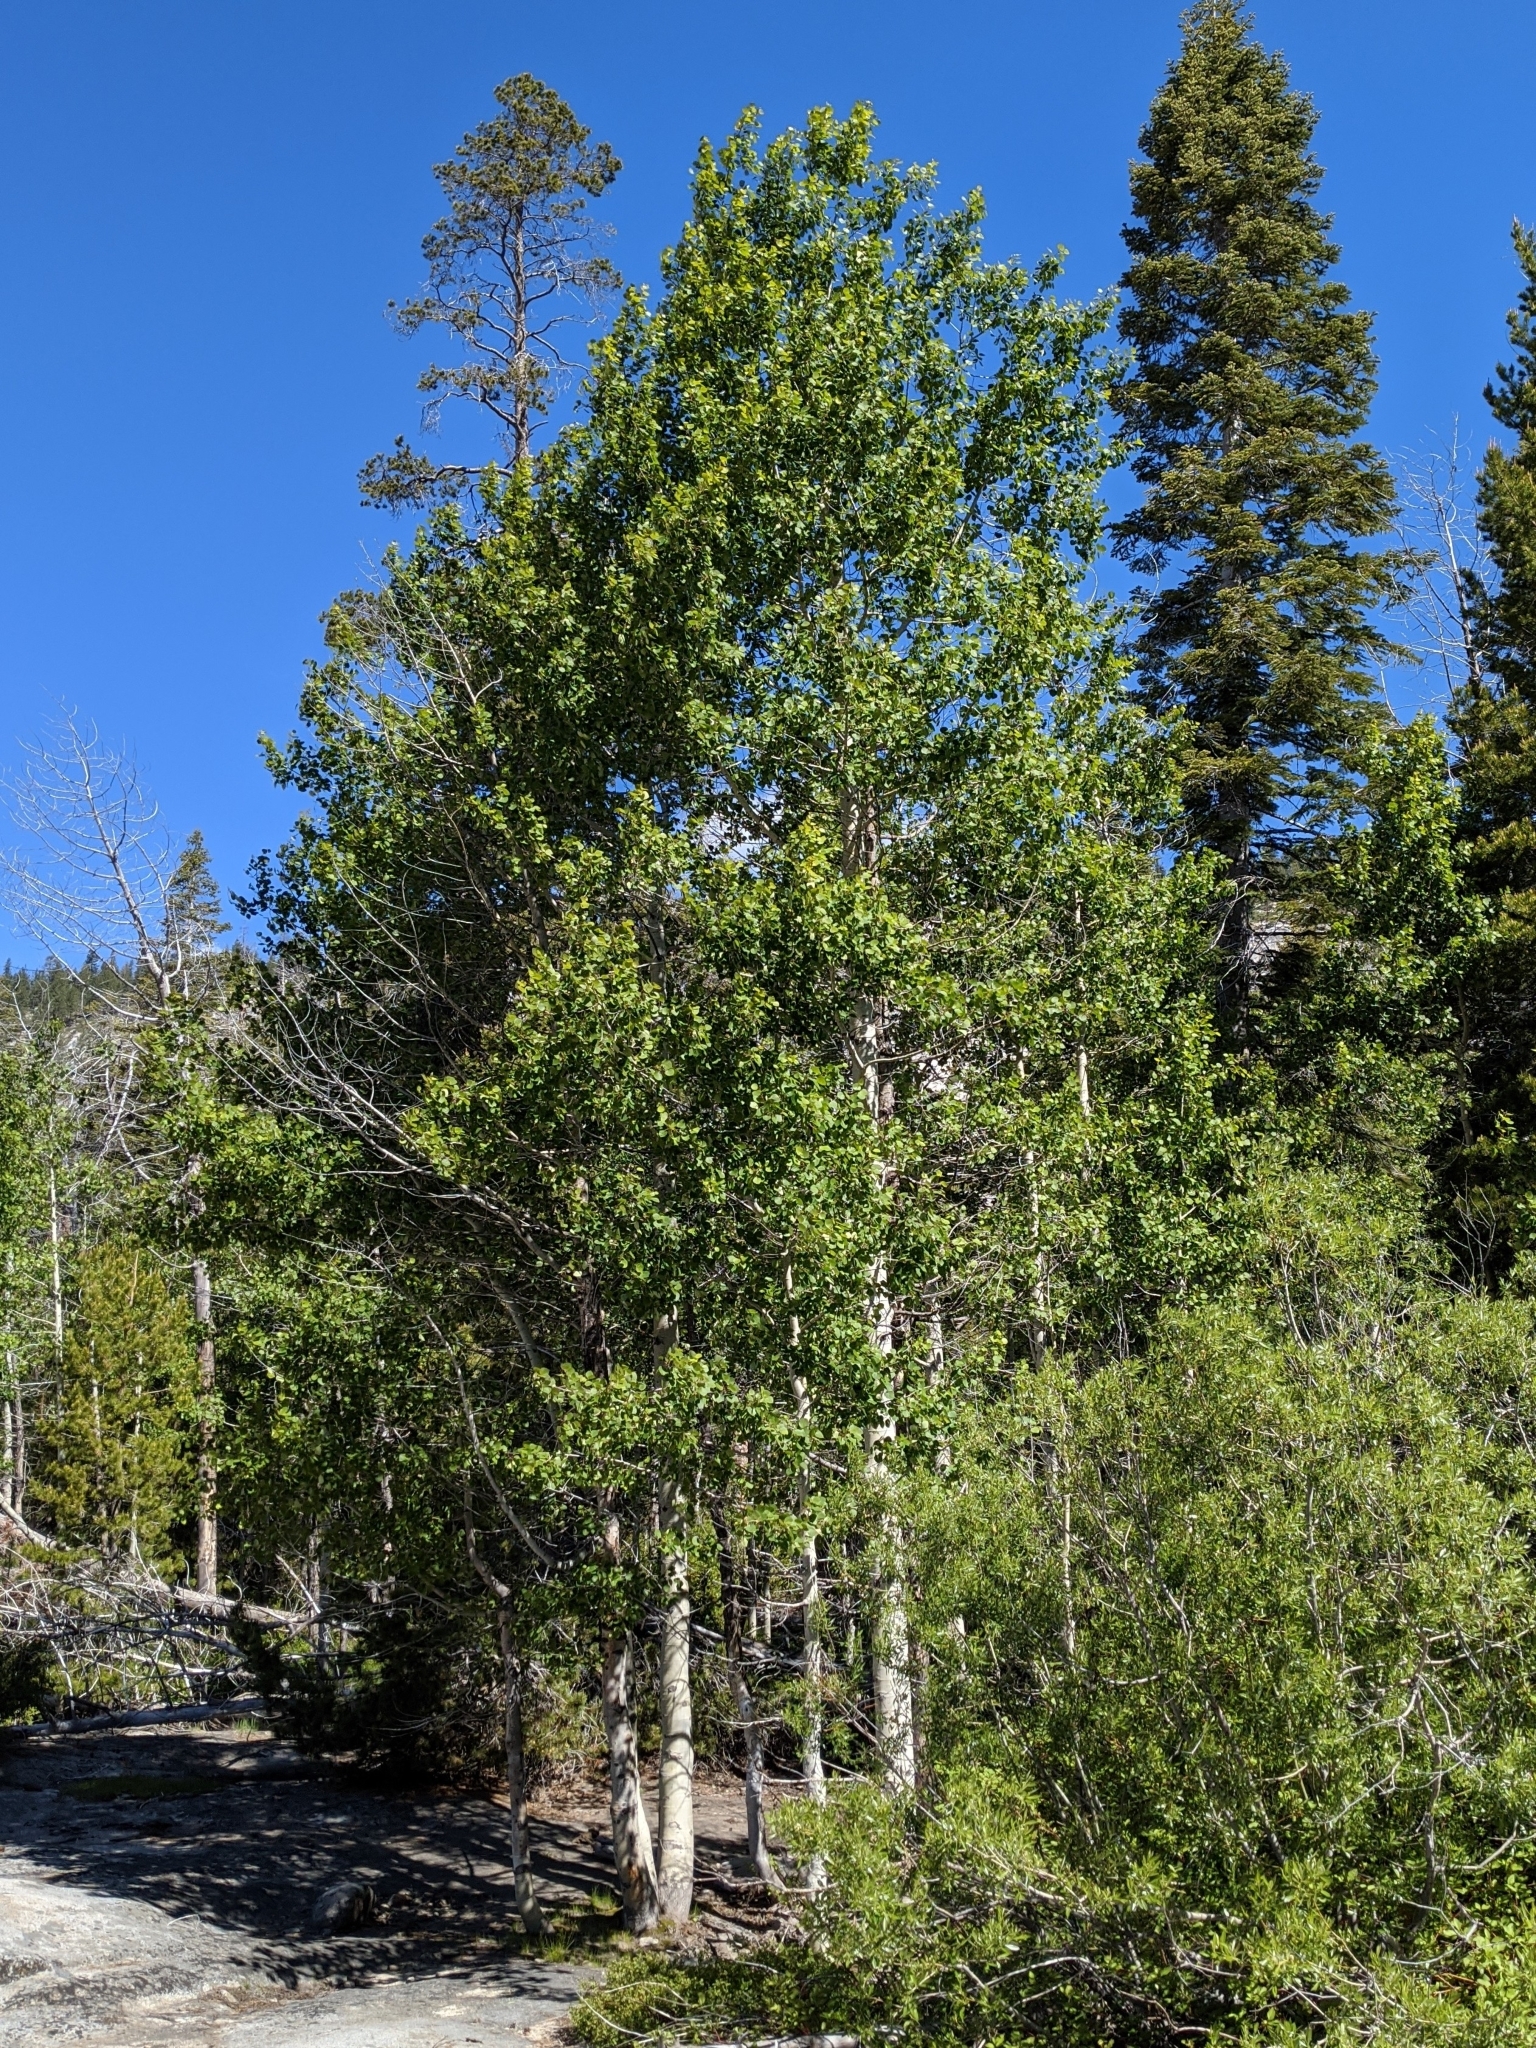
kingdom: Plantae
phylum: Tracheophyta
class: Magnoliopsida
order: Malpighiales
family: Salicaceae
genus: Populus
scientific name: Populus tremuloides
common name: Quaking aspen
